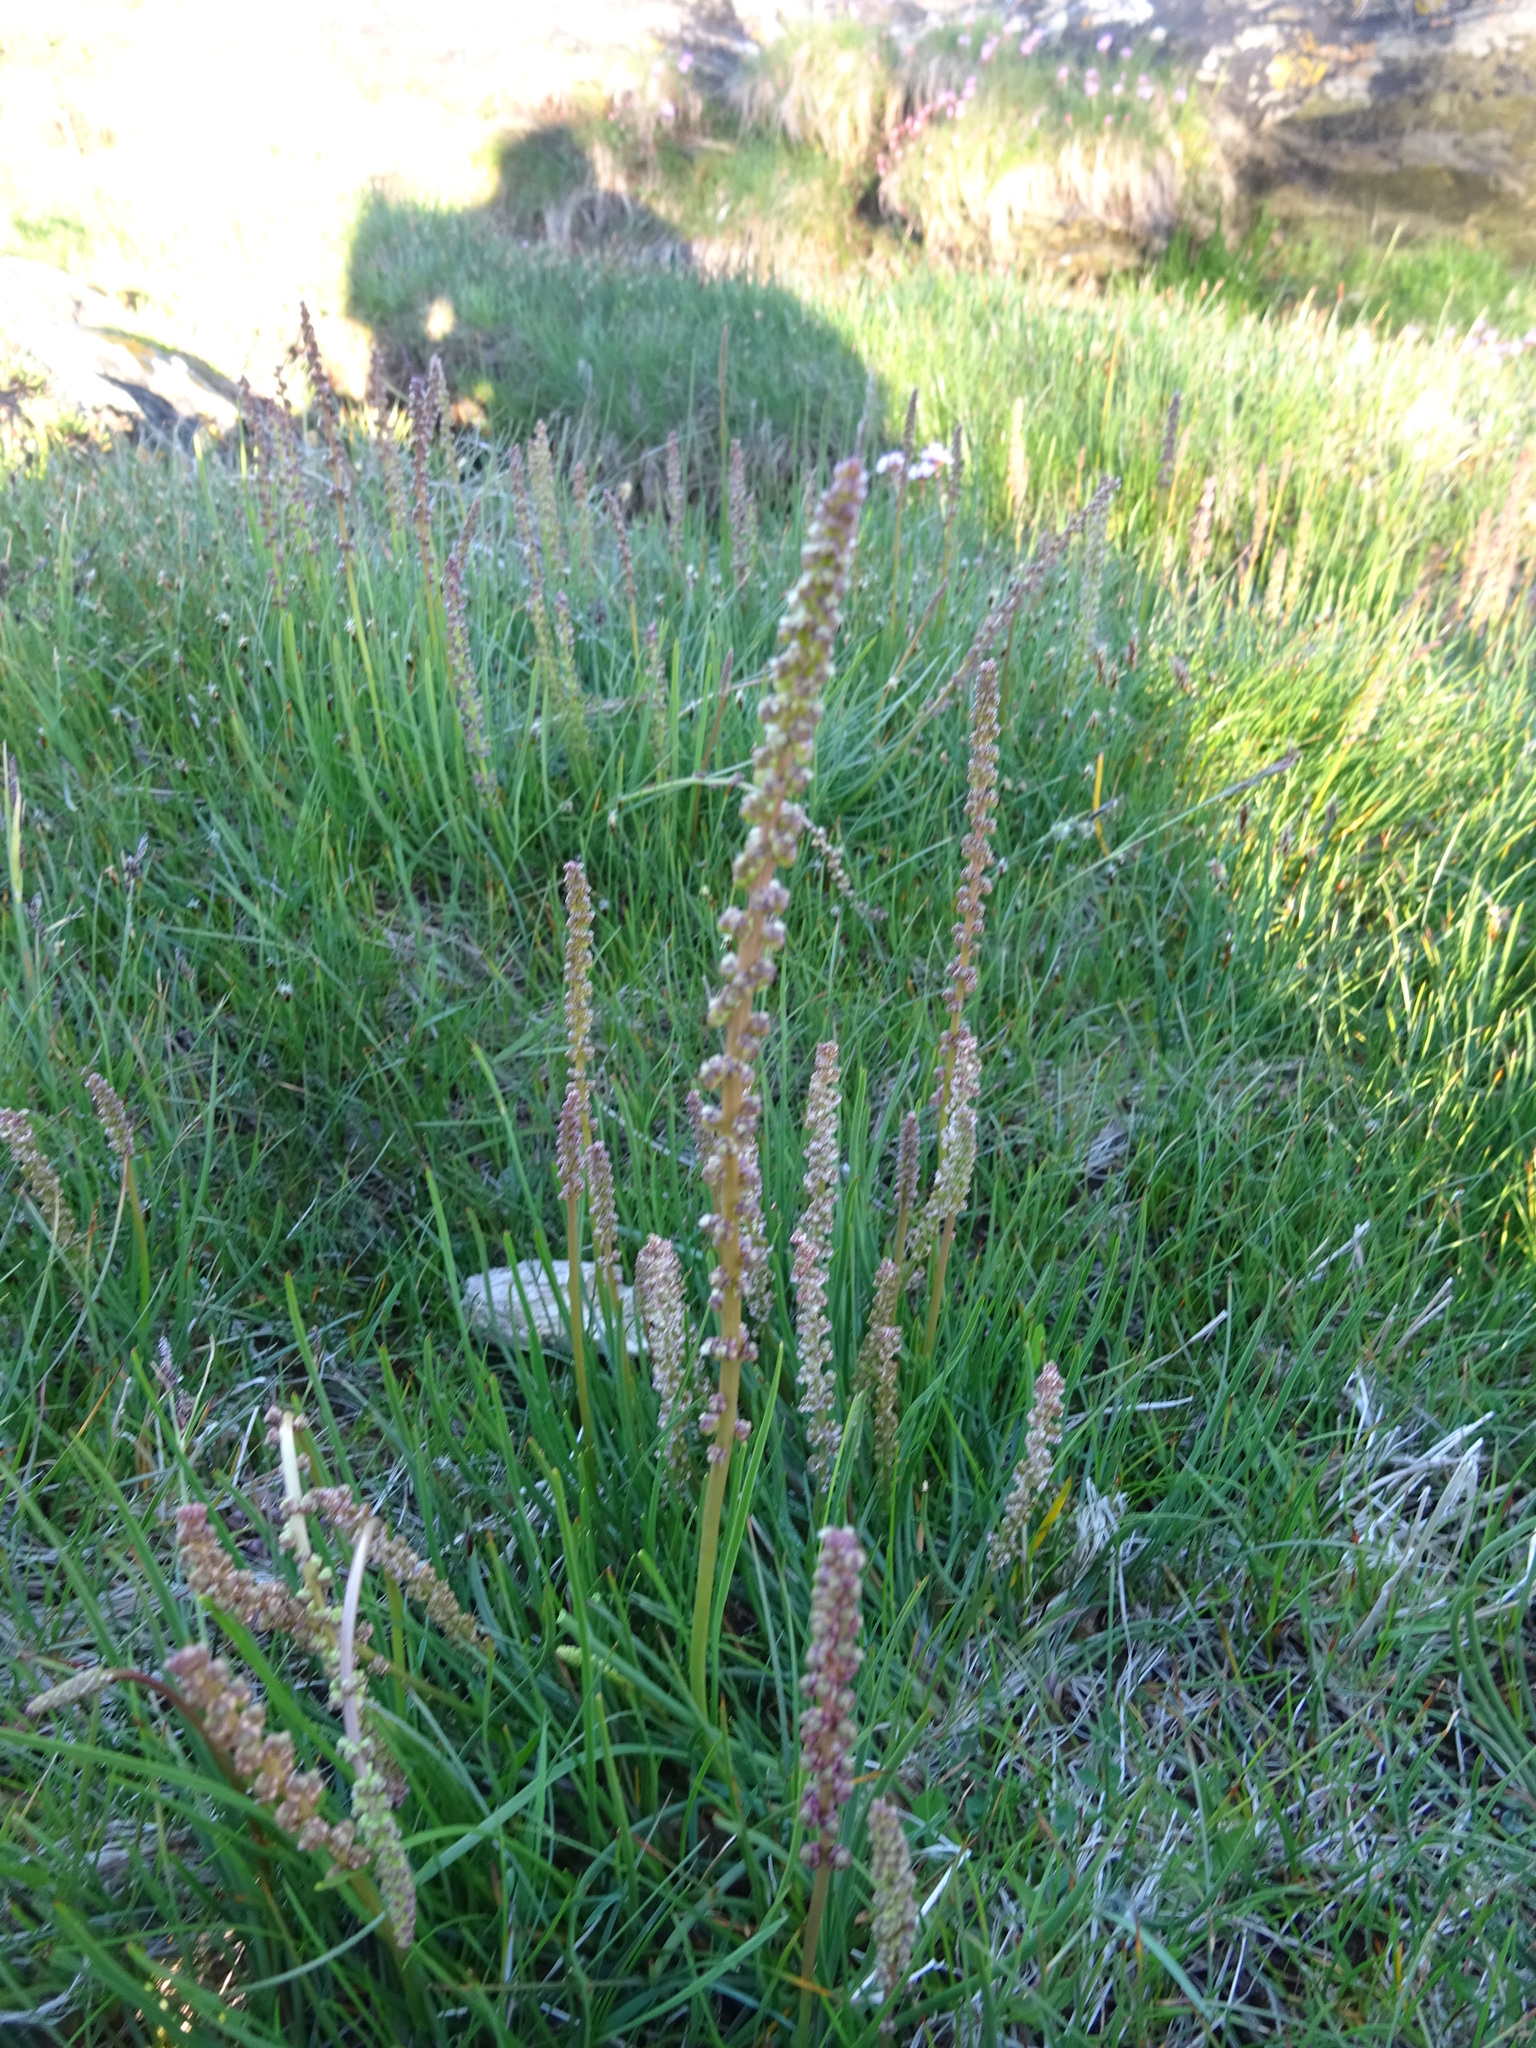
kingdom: Plantae
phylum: Tracheophyta
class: Liliopsida
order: Alismatales
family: Juncaginaceae
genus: Triglochin
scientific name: Triglochin maritima
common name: Sea arrowgrass
